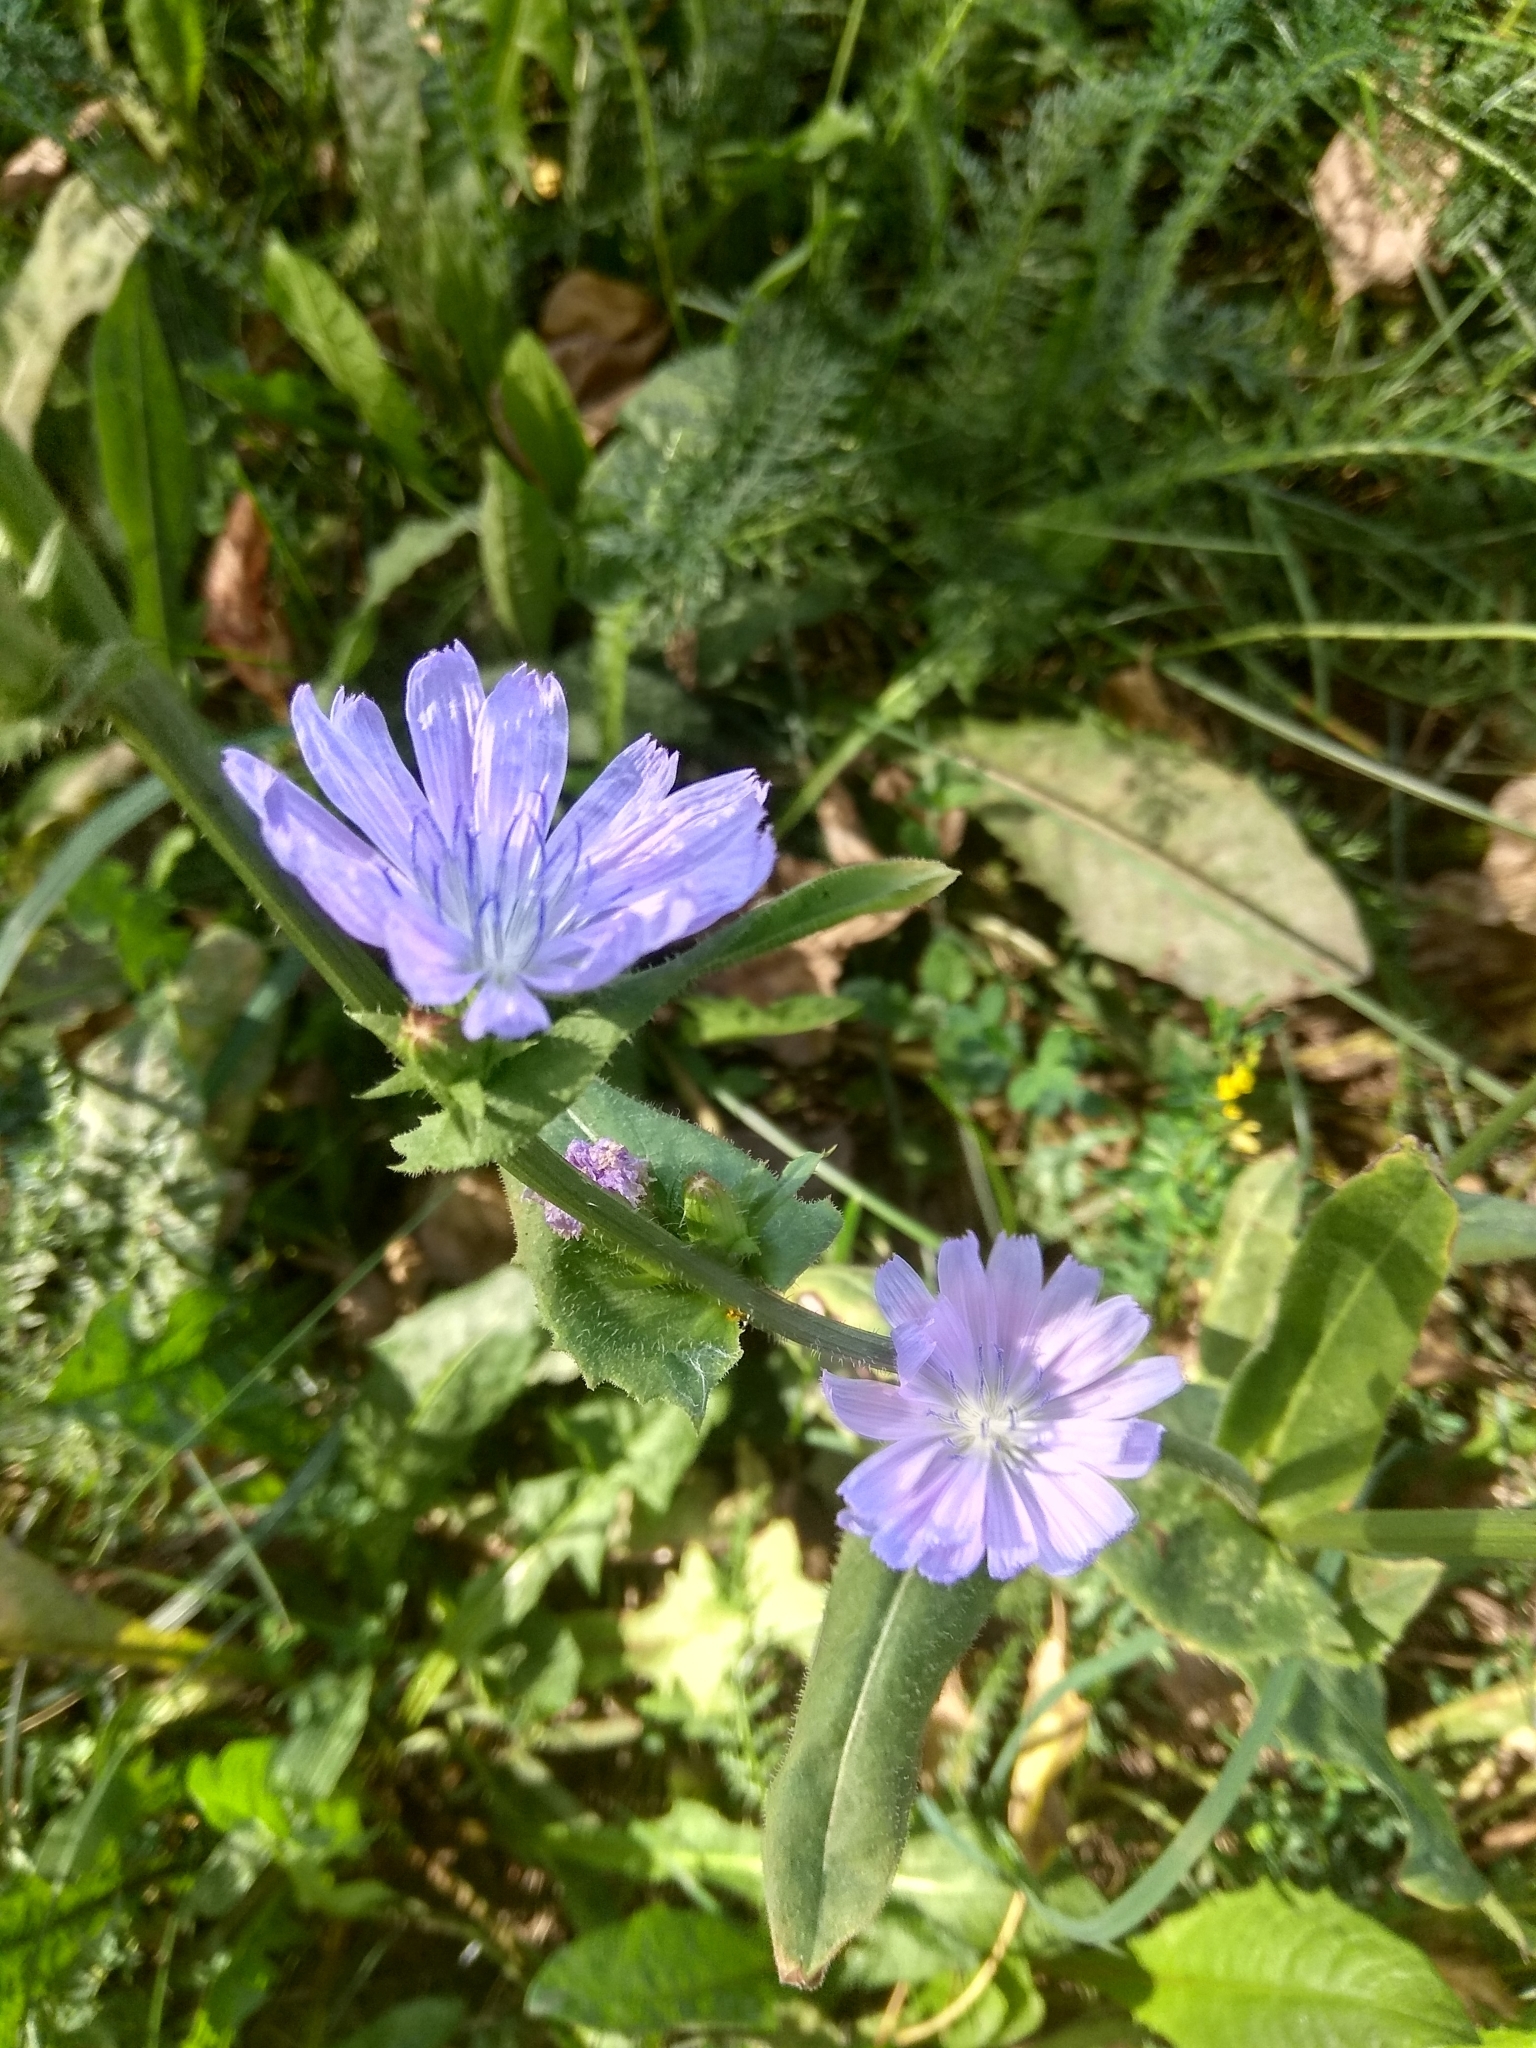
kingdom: Plantae
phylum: Tracheophyta
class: Magnoliopsida
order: Asterales
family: Asteraceae
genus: Cichorium
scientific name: Cichorium intybus
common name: Chicory
